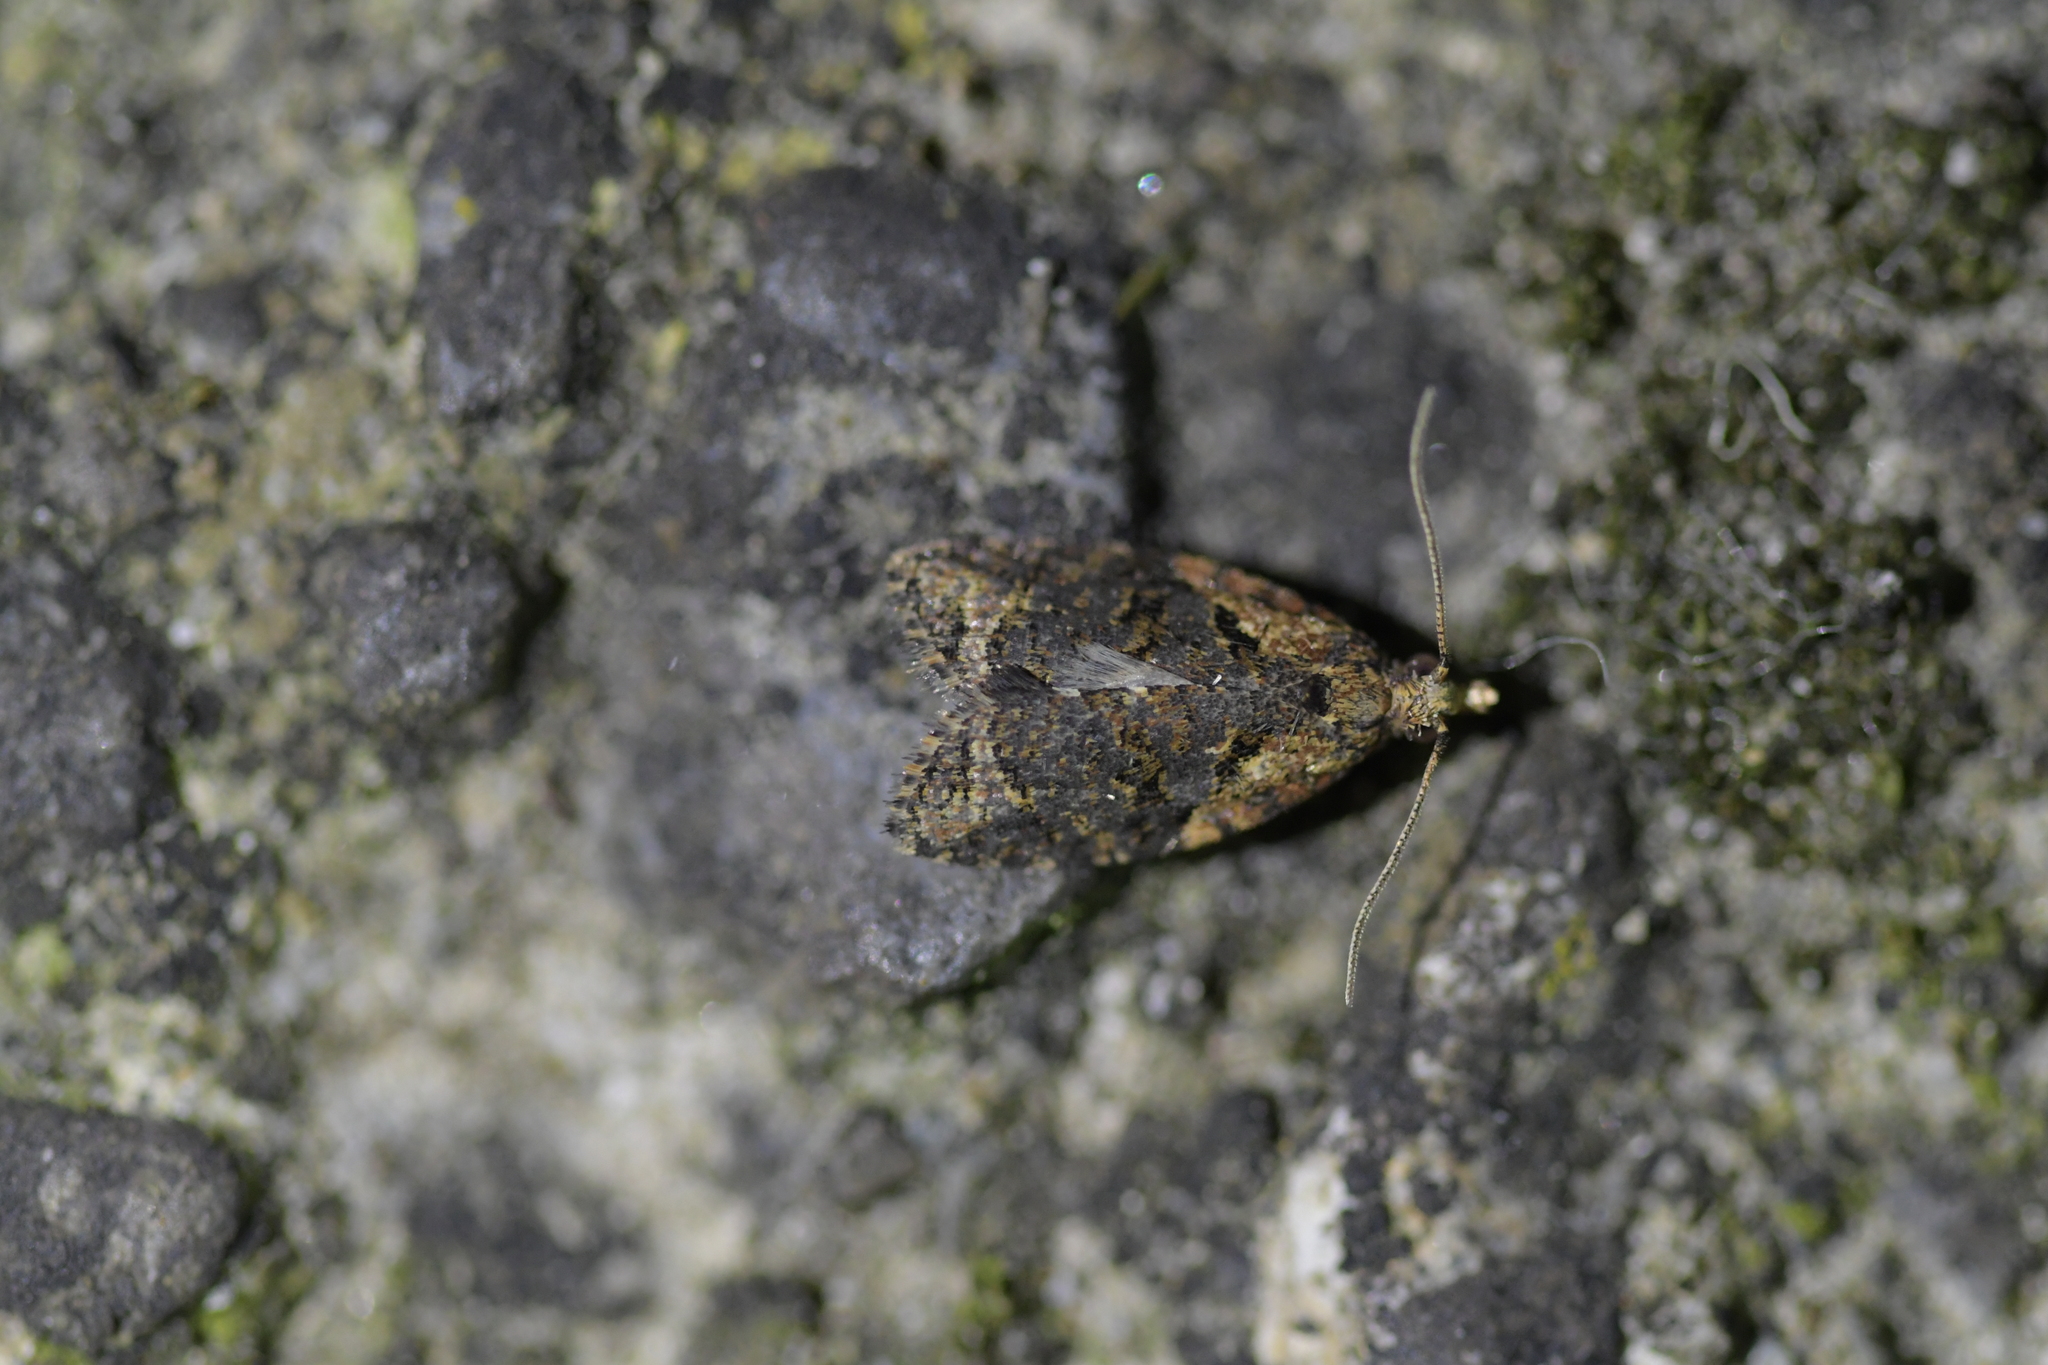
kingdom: Animalia
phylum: Arthropoda
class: Insecta
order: Lepidoptera
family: Tortricidae
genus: Capua
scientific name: Capua intractana
